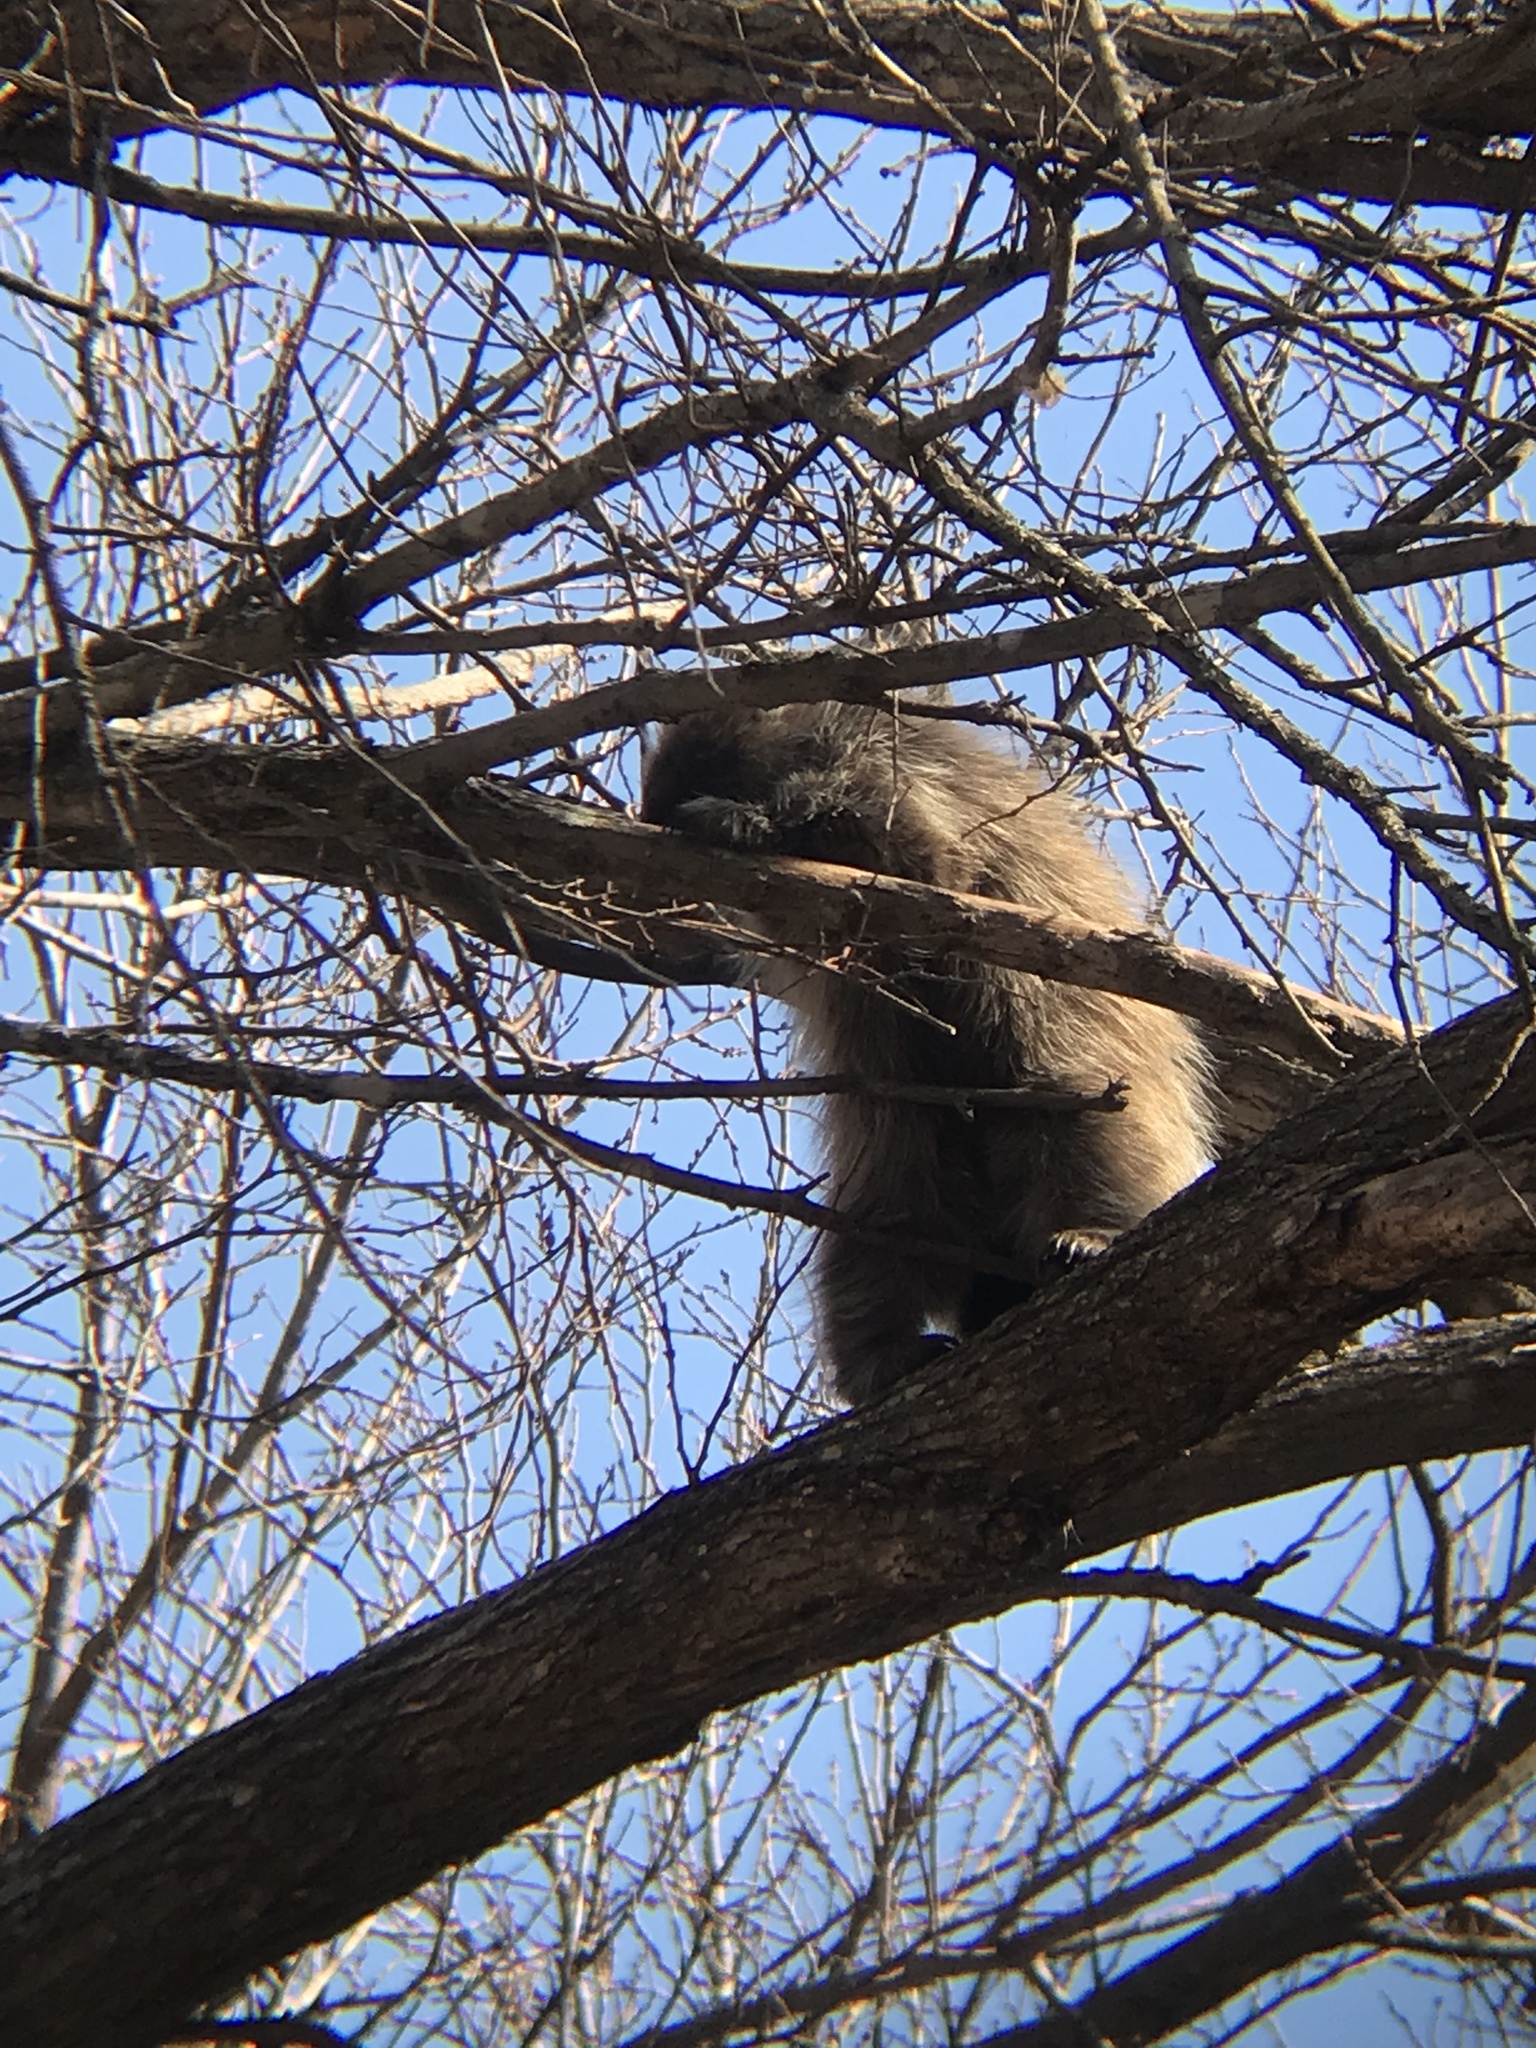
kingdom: Animalia
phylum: Chordata
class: Mammalia
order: Rodentia
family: Erethizontidae
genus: Erethizon
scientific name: Erethizon dorsatus
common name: North american porcupine
